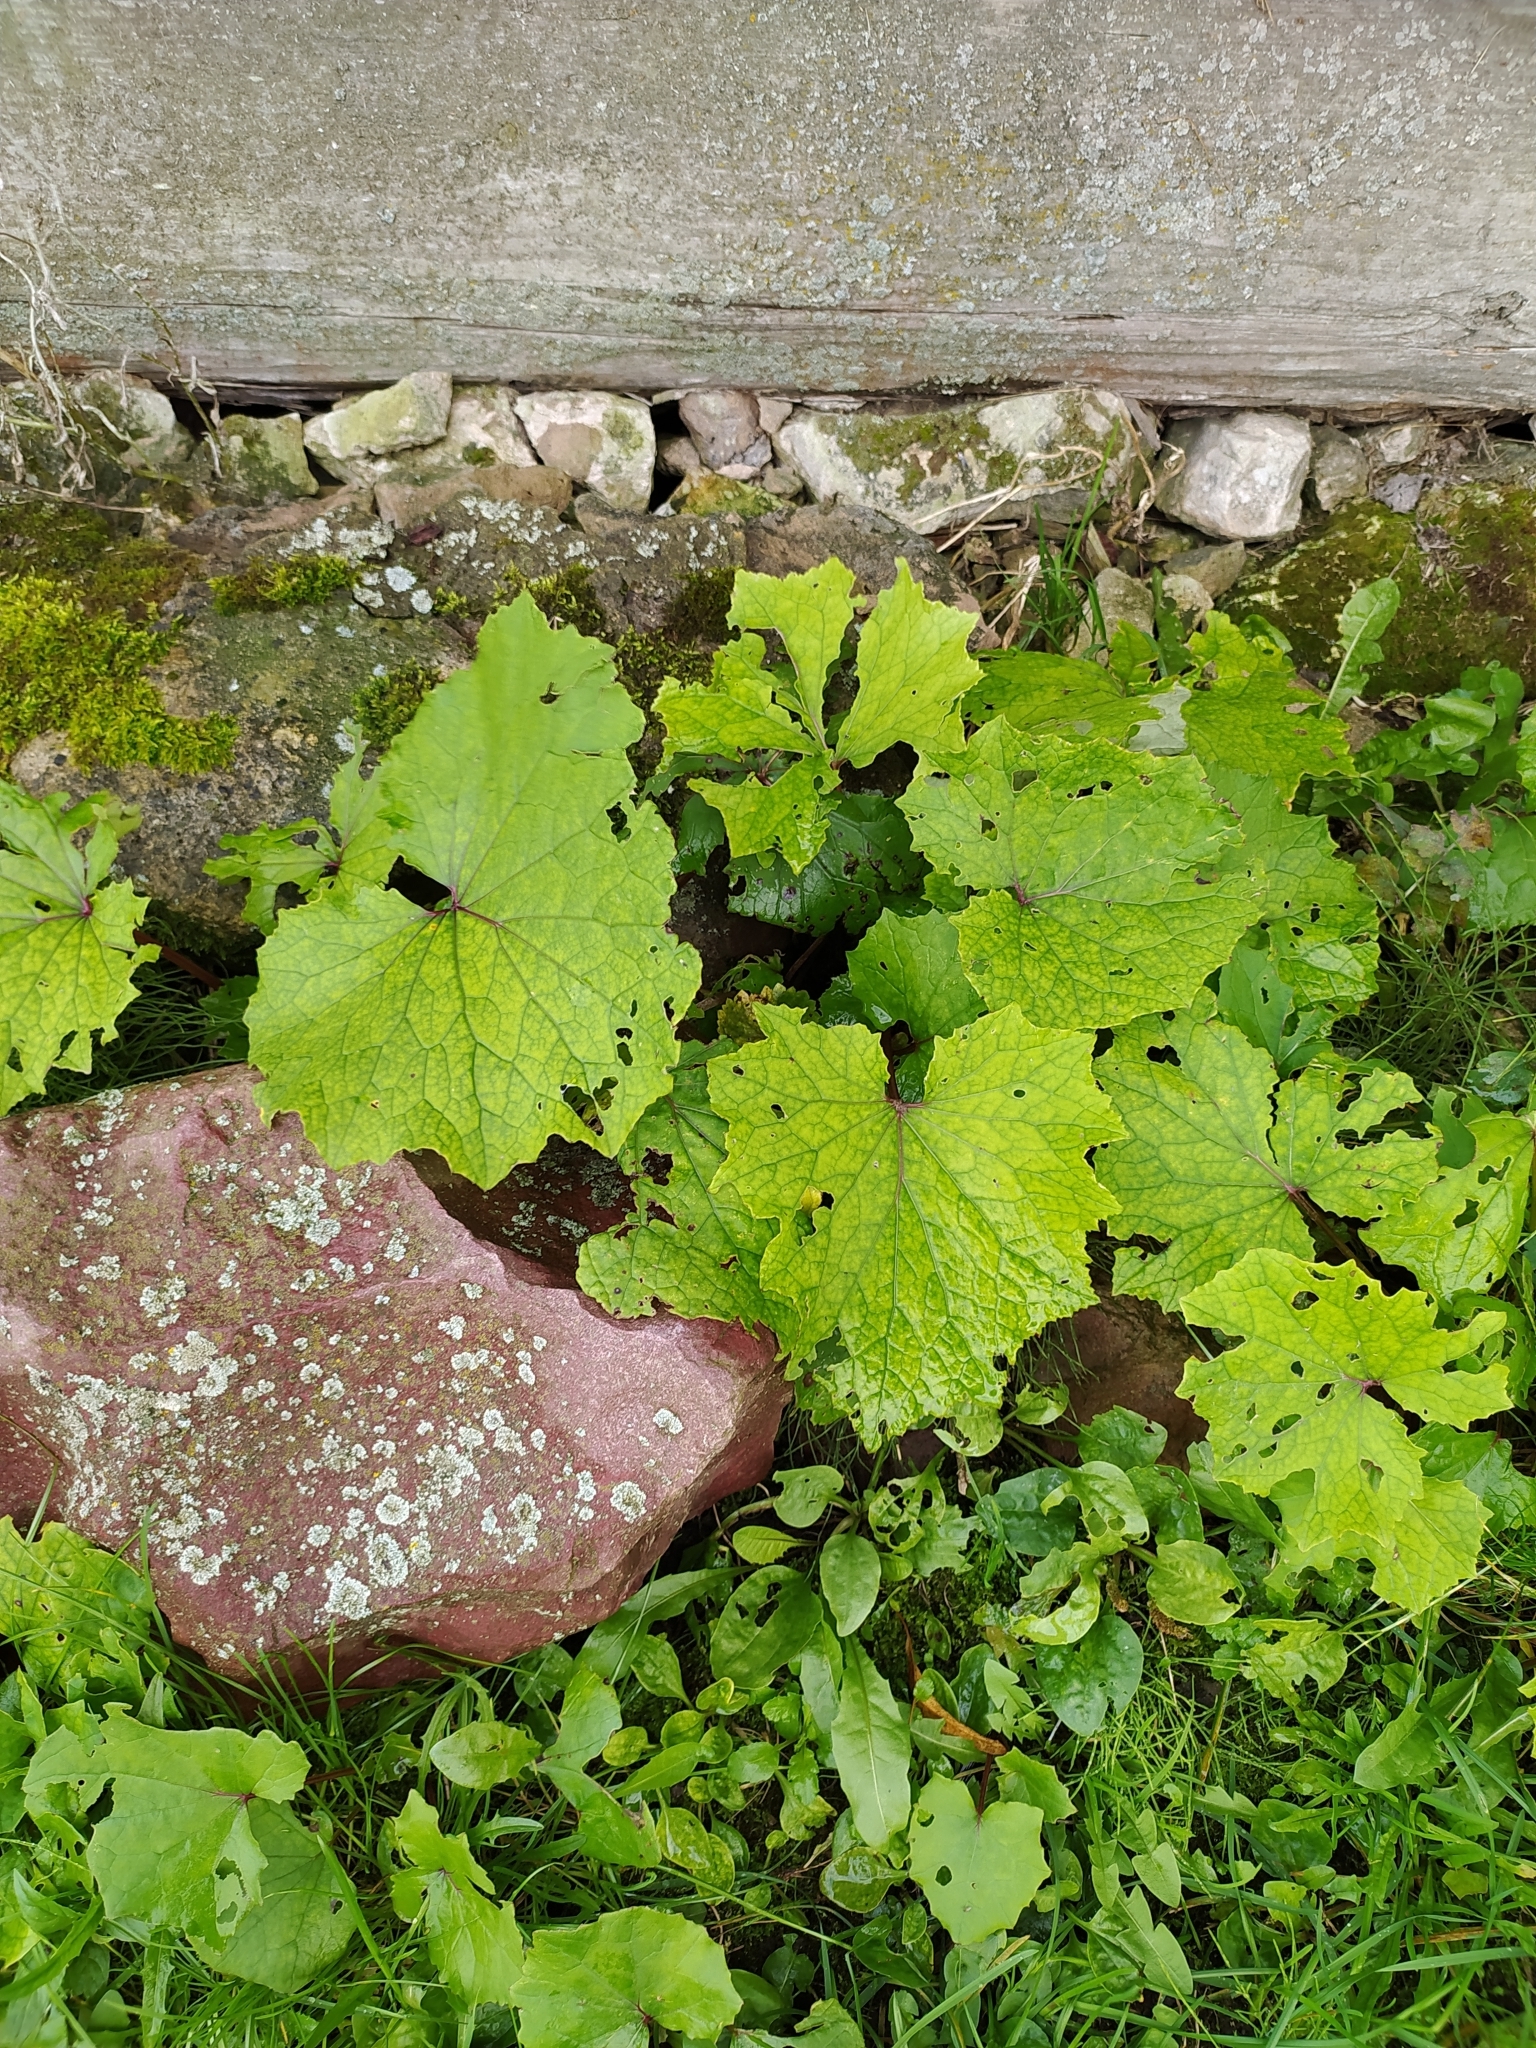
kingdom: Plantae
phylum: Tracheophyta
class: Magnoliopsida
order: Asterales
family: Asteraceae
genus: Tussilago
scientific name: Tussilago farfara
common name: Coltsfoot
